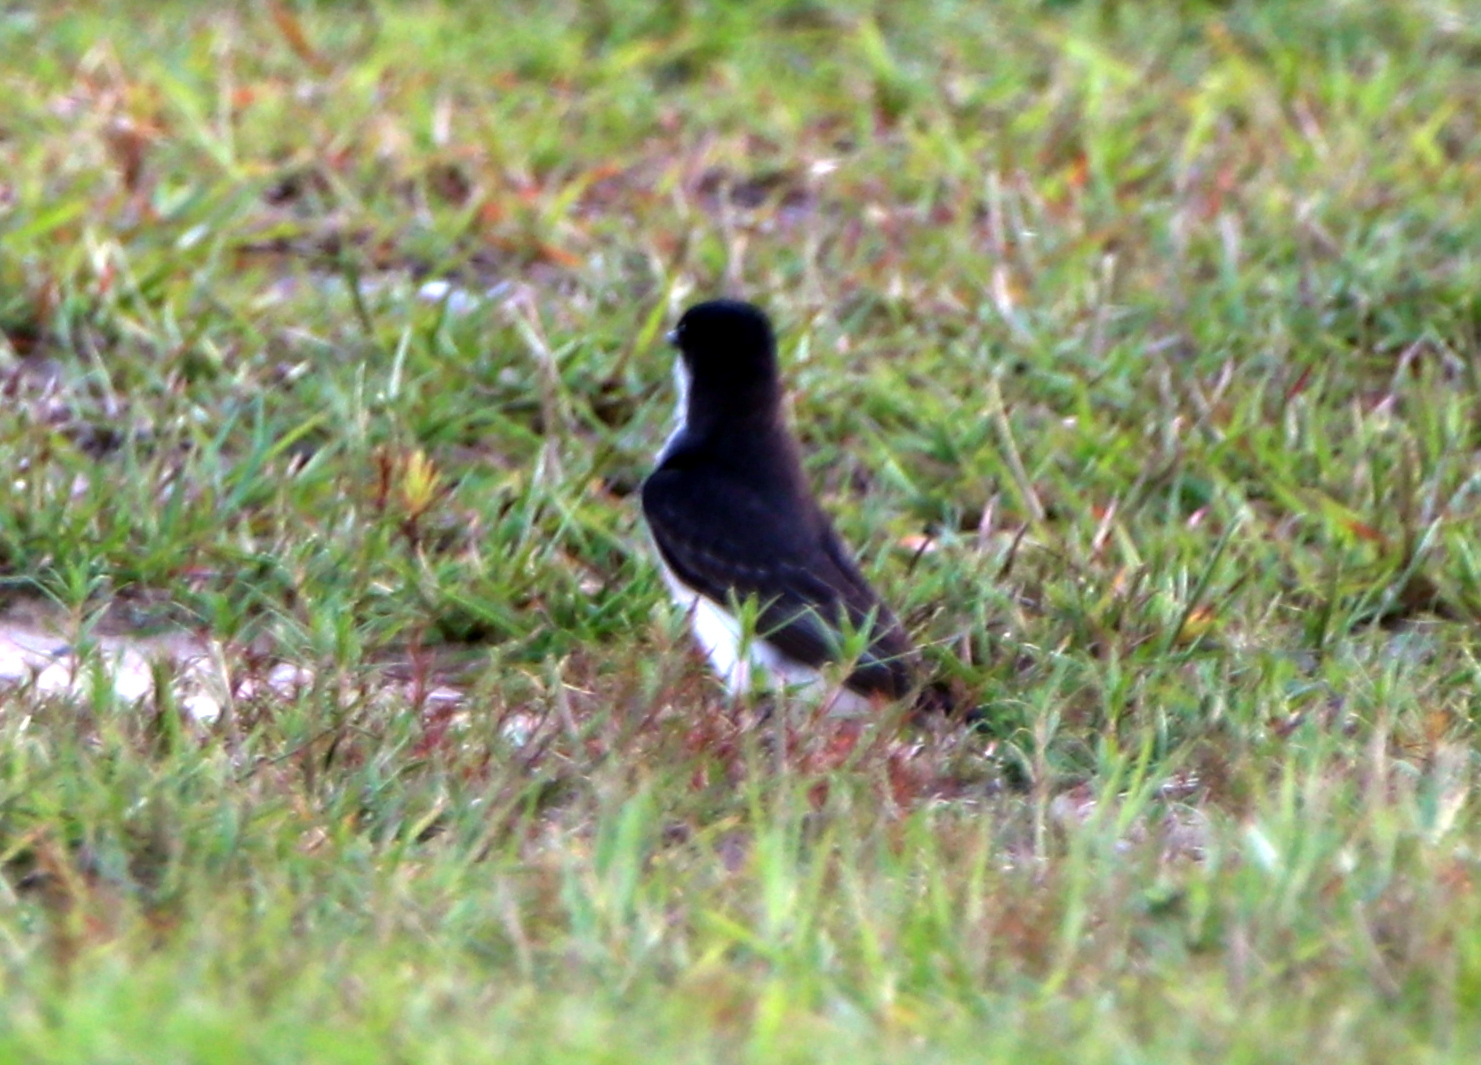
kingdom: Animalia
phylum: Chordata
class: Aves
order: Passeriformes
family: Tyrannidae
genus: Tyrannus
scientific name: Tyrannus tyrannus
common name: Eastern kingbird
